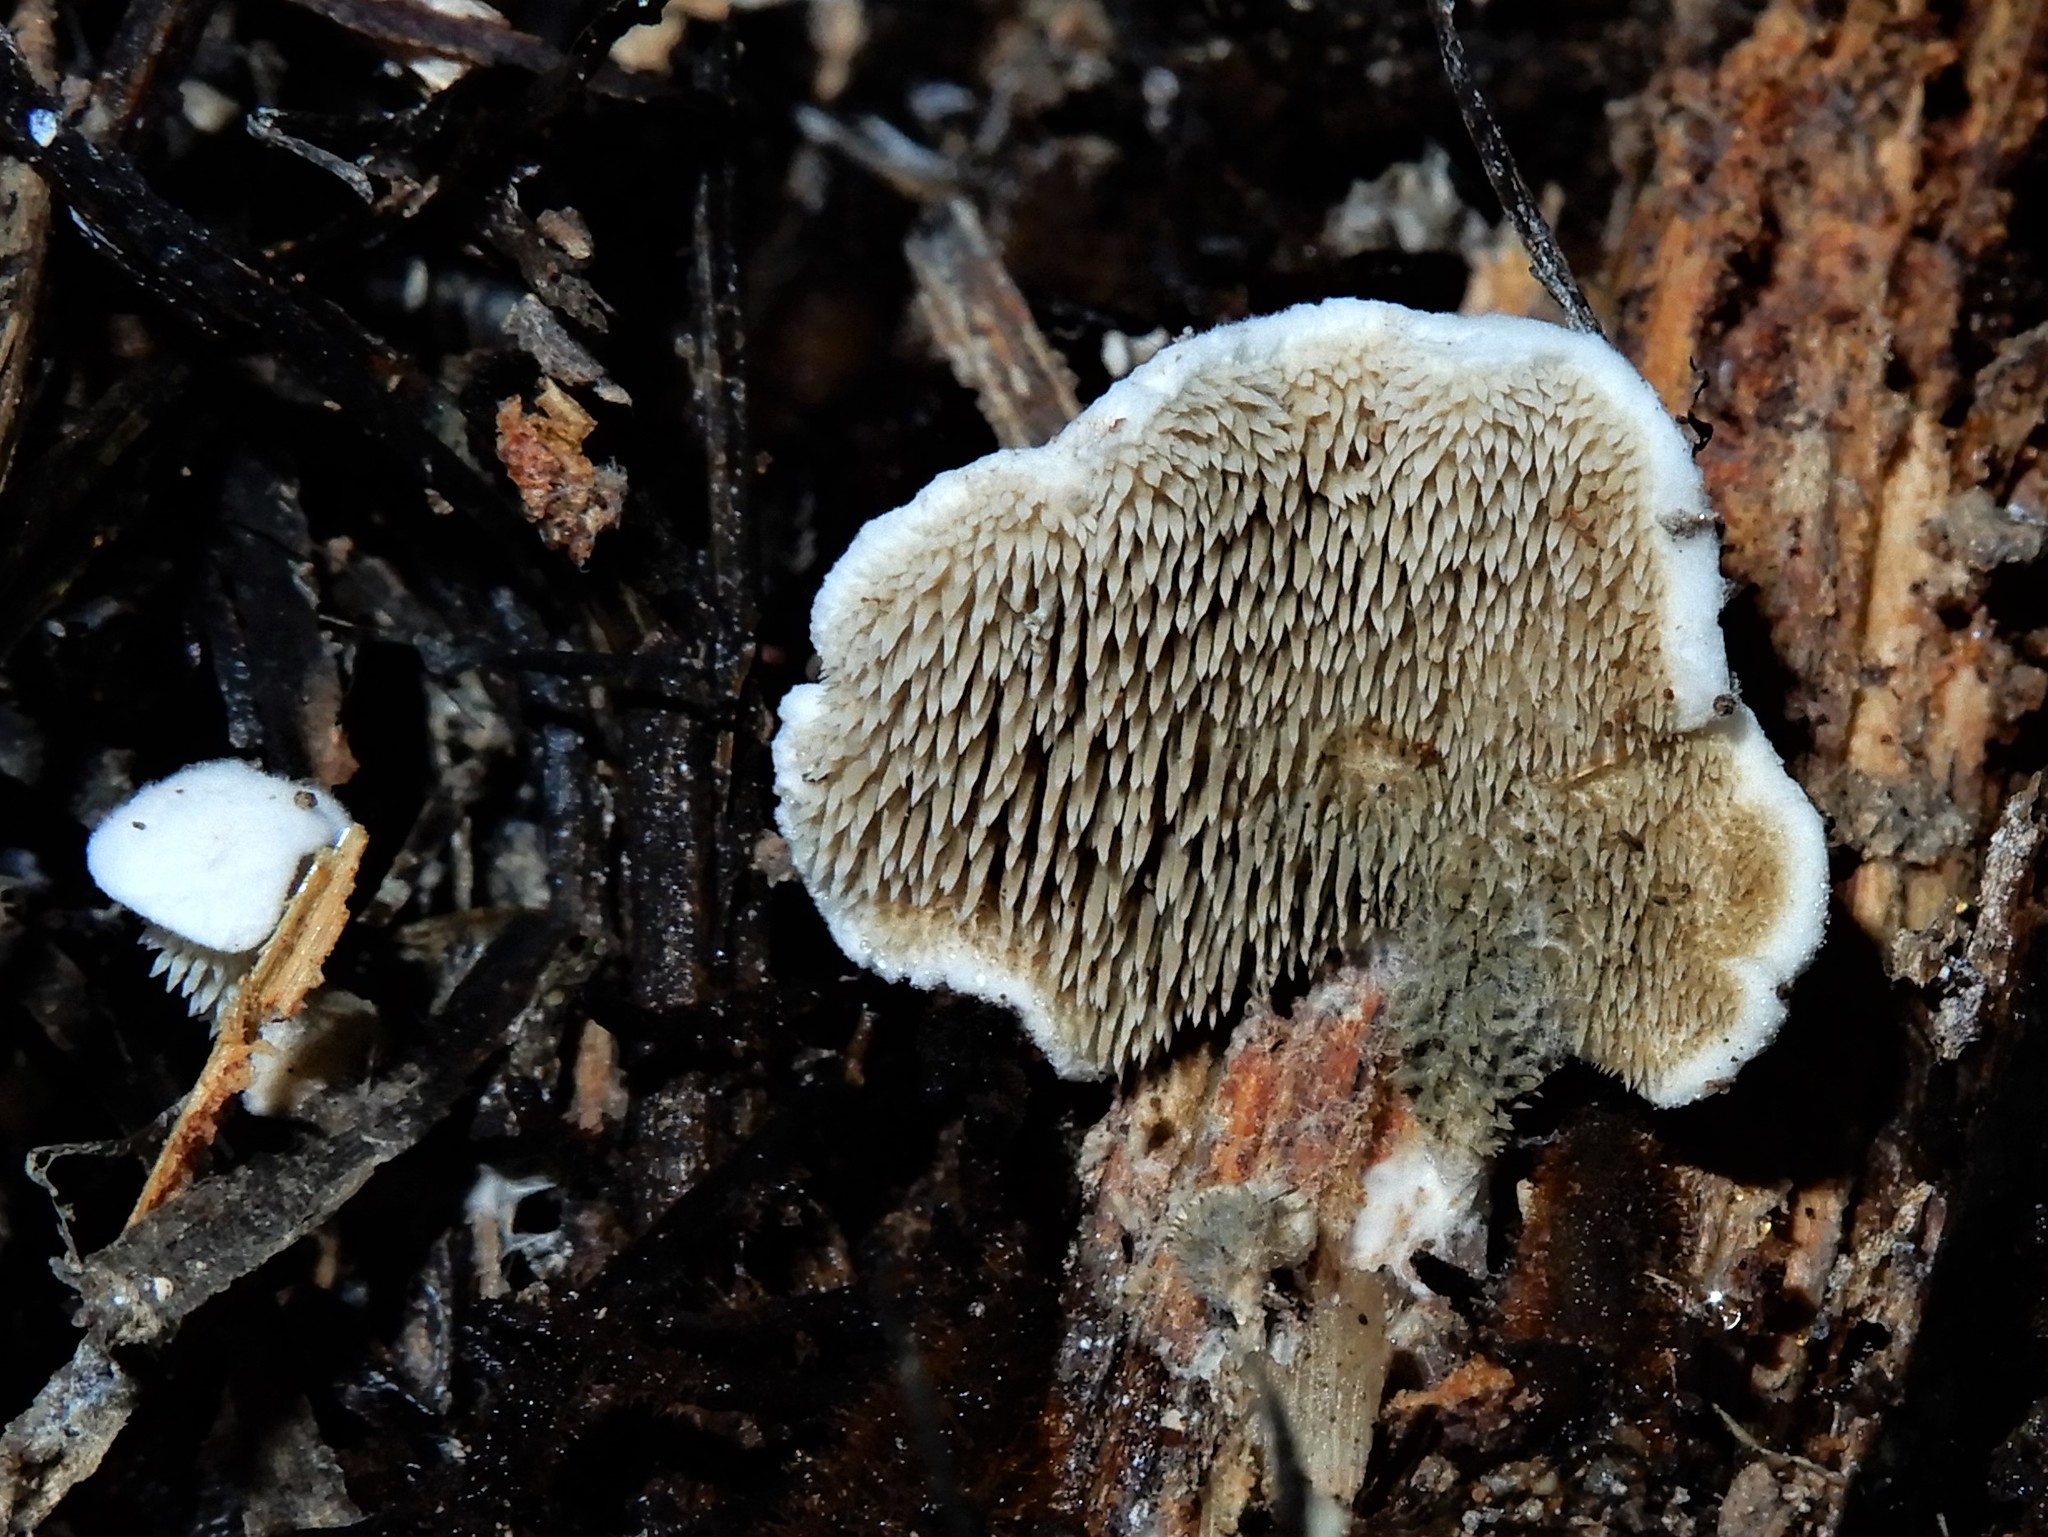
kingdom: Fungi
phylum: Basidiomycota
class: Agaricomycetes
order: Gomphales
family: Clavariadelphaceae
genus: Beenakia
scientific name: Beenakia dacostae
